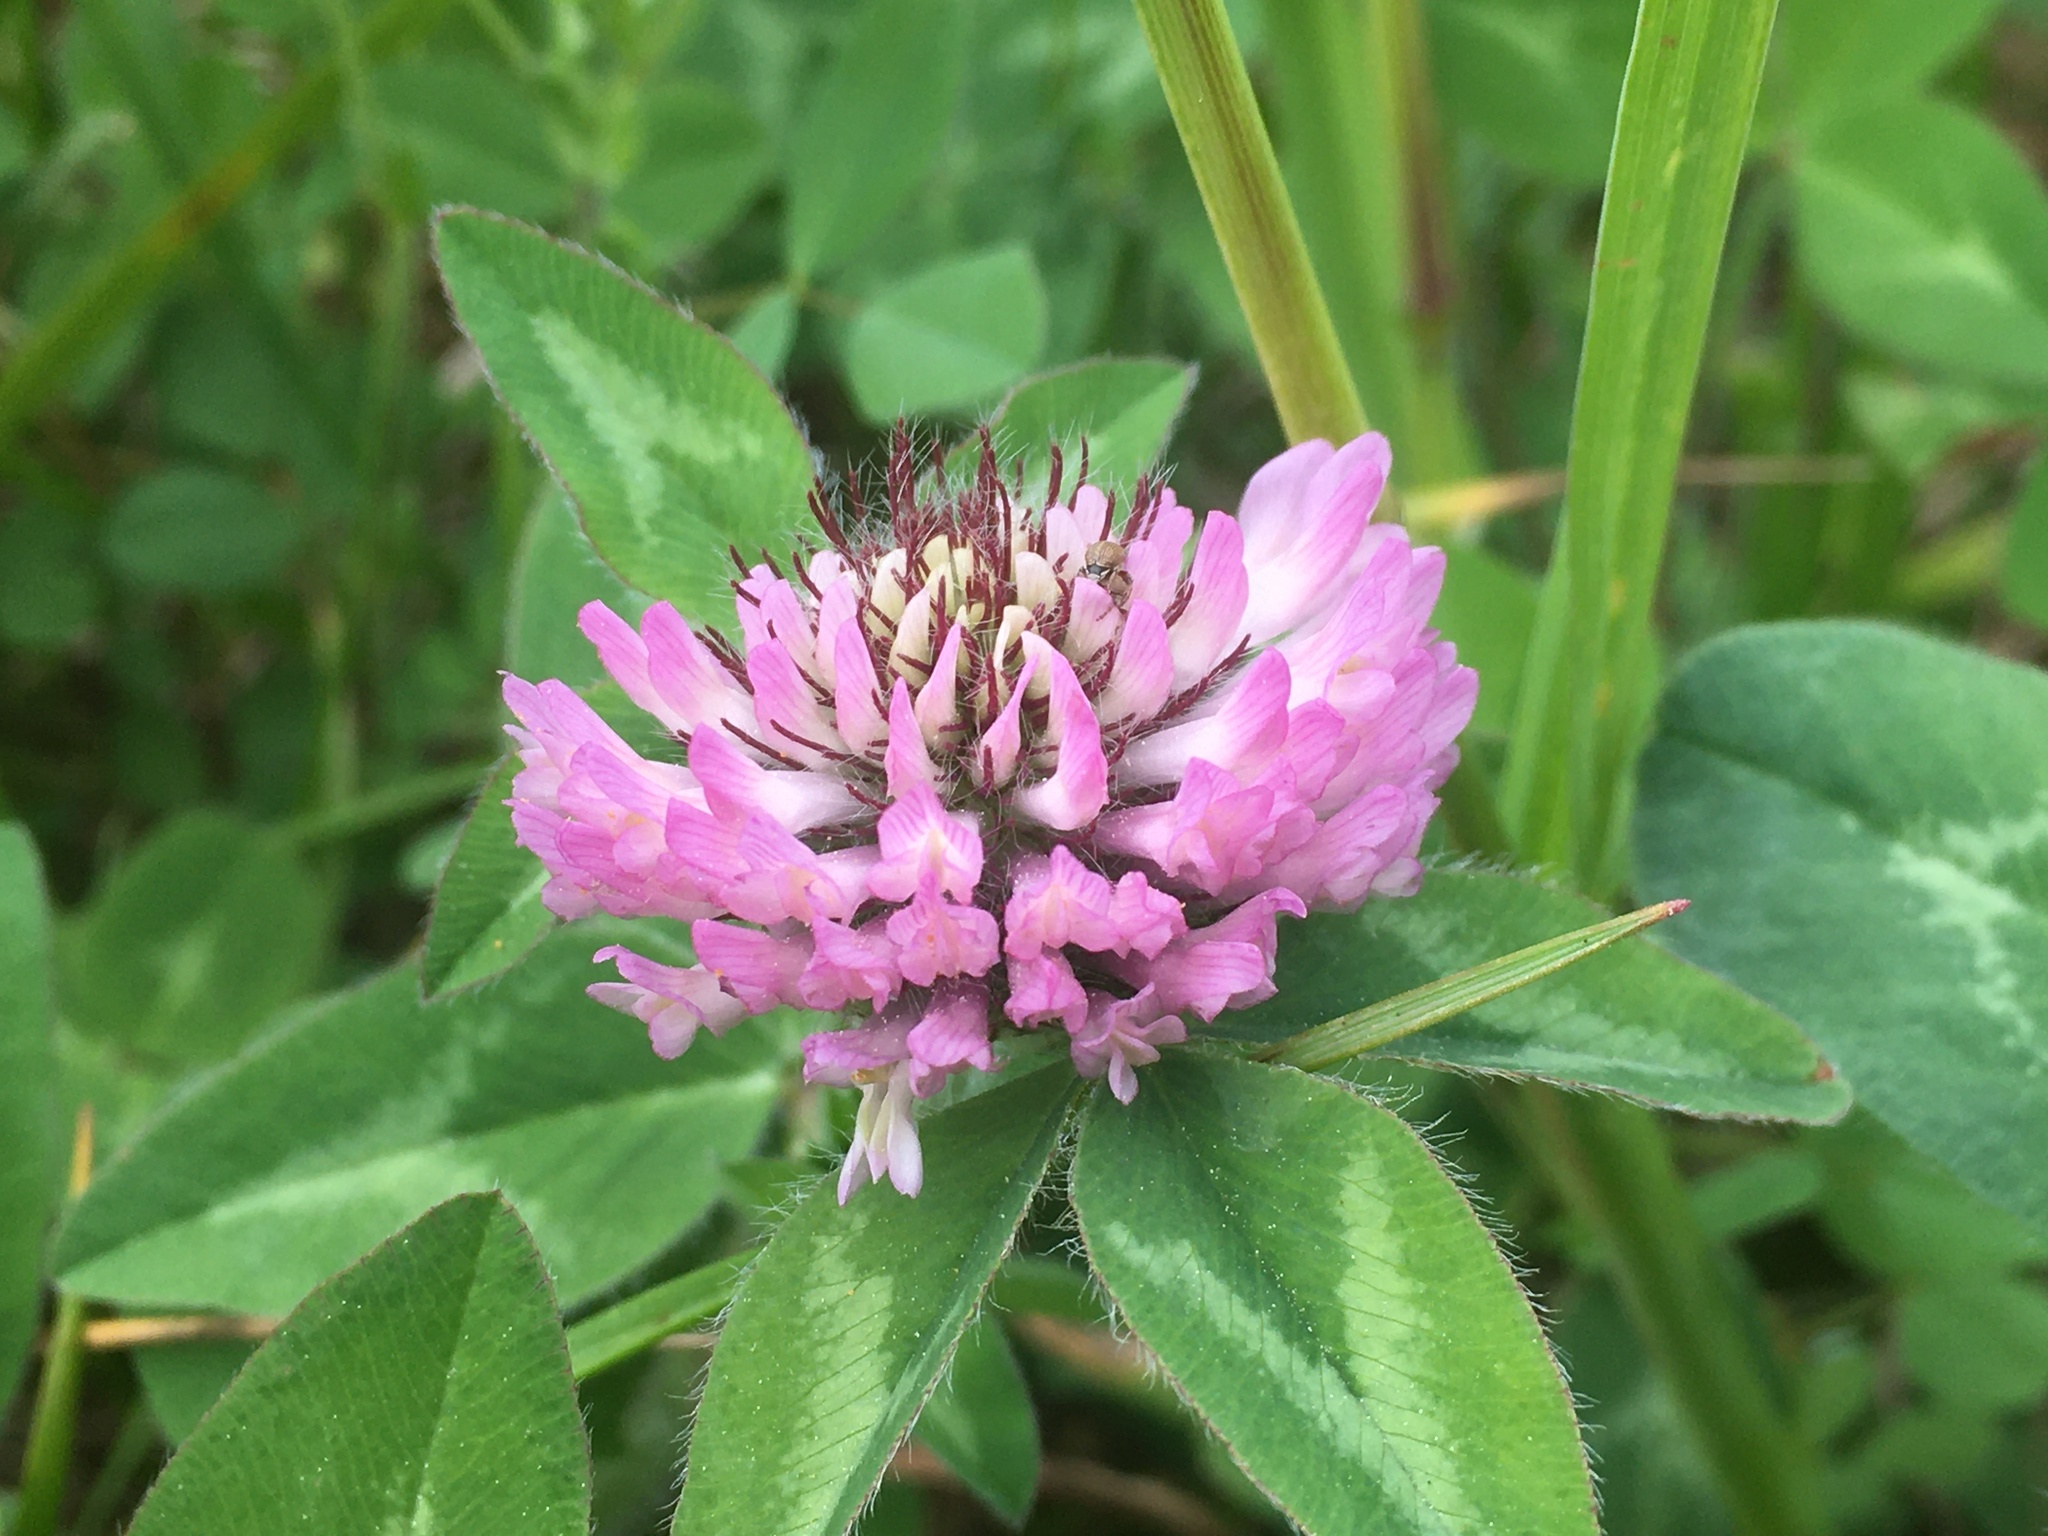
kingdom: Plantae
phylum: Tracheophyta
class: Magnoliopsida
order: Fabales
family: Fabaceae
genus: Trifolium
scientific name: Trifolium pratense
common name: Red clover
